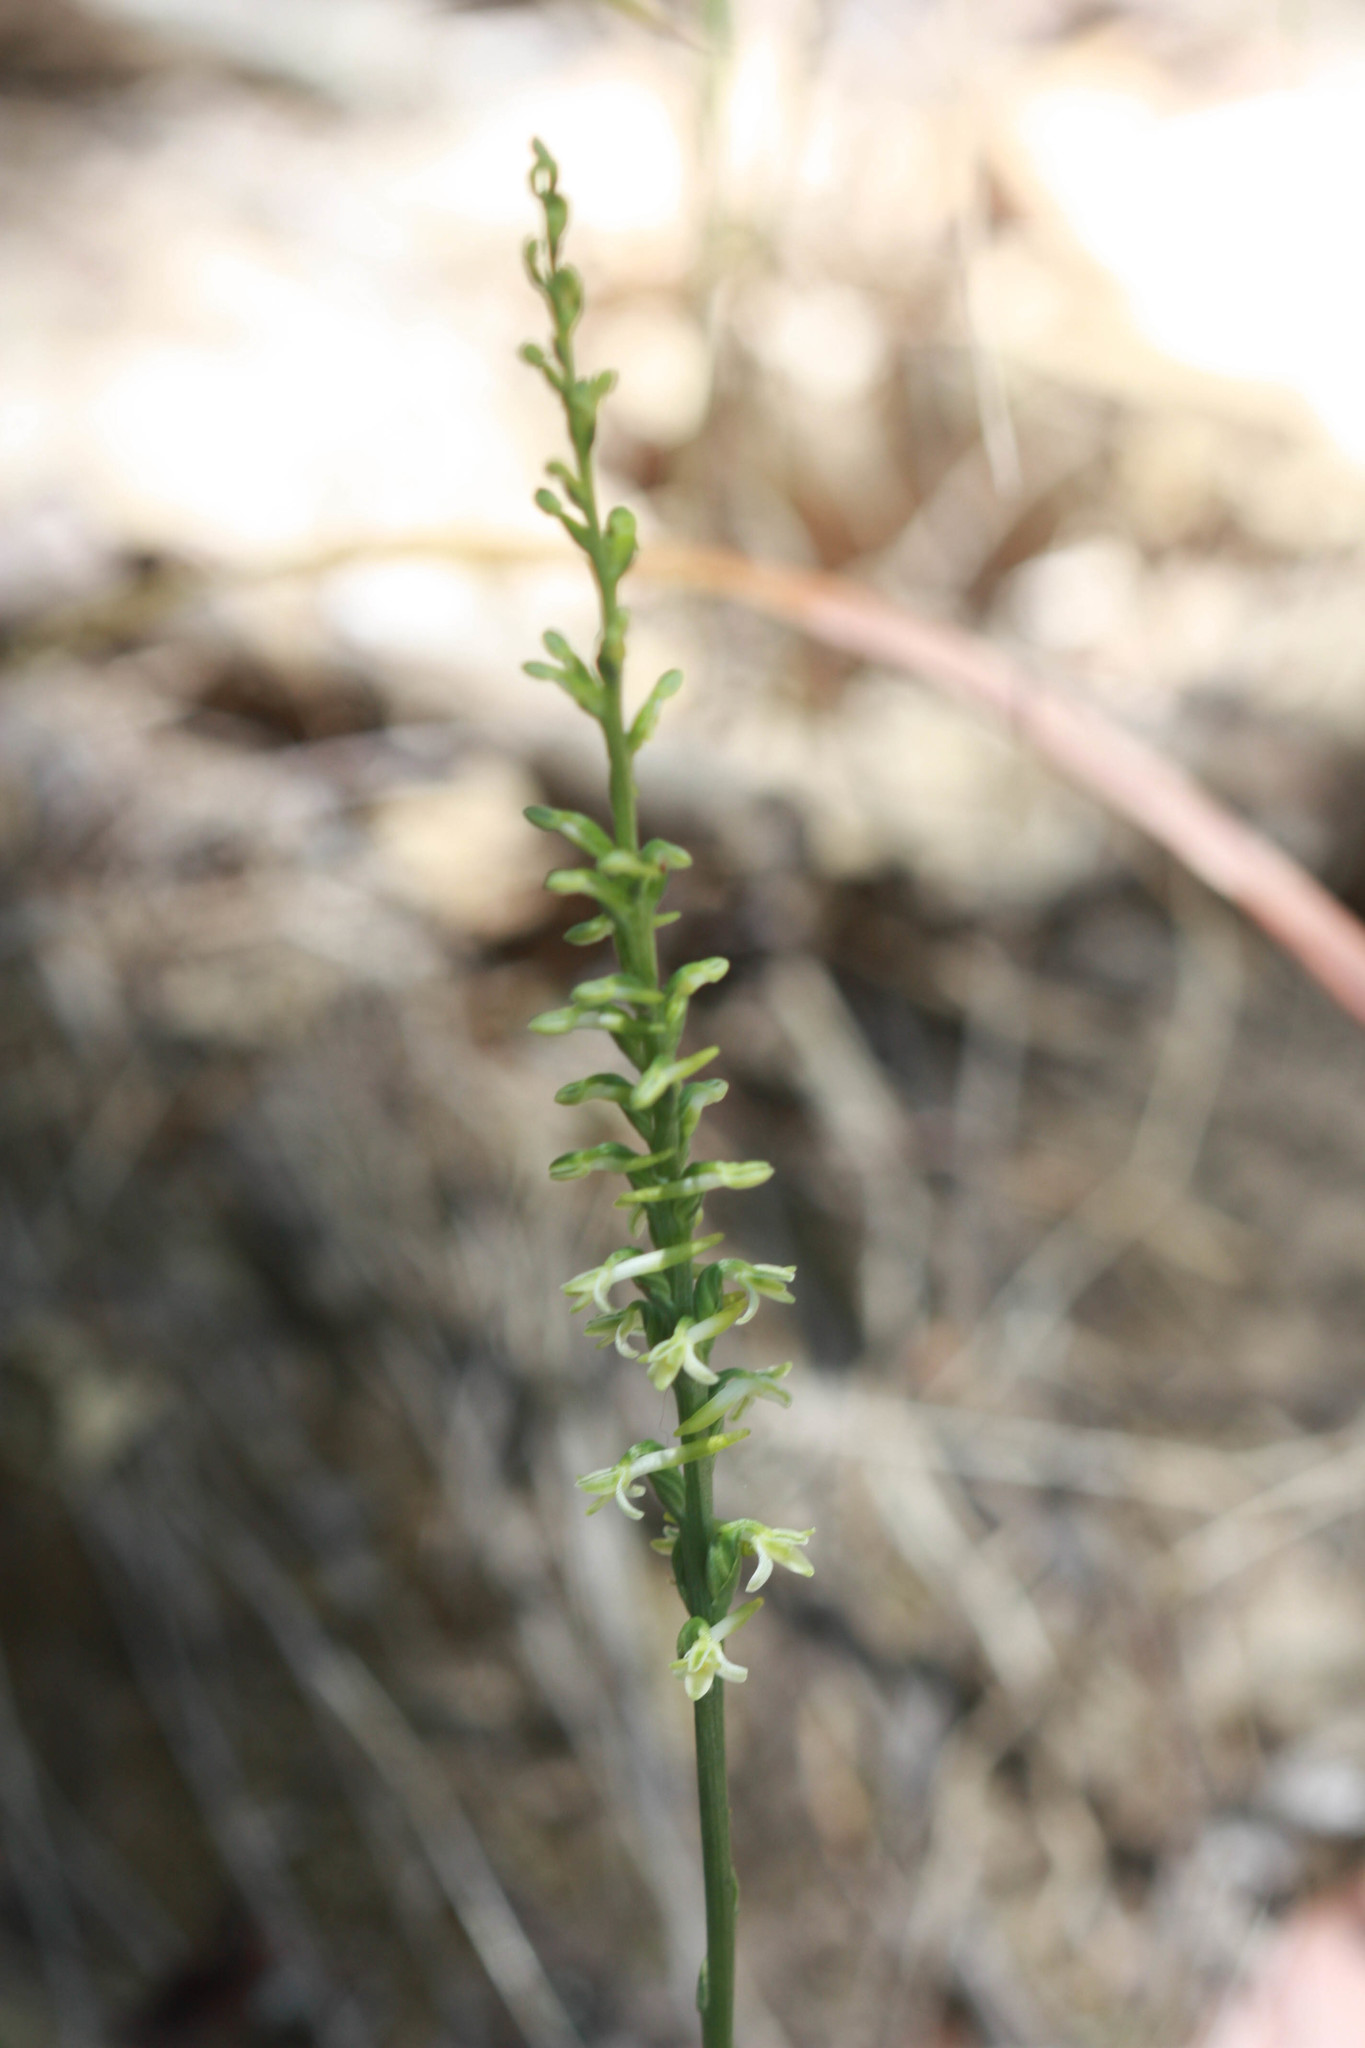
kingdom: Plantae
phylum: Tracheophyta
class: Liliopsida
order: Asparagales
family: Orchidaceae
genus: Platanthera
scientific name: Platanthera transversa
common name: Royal rein orchid
